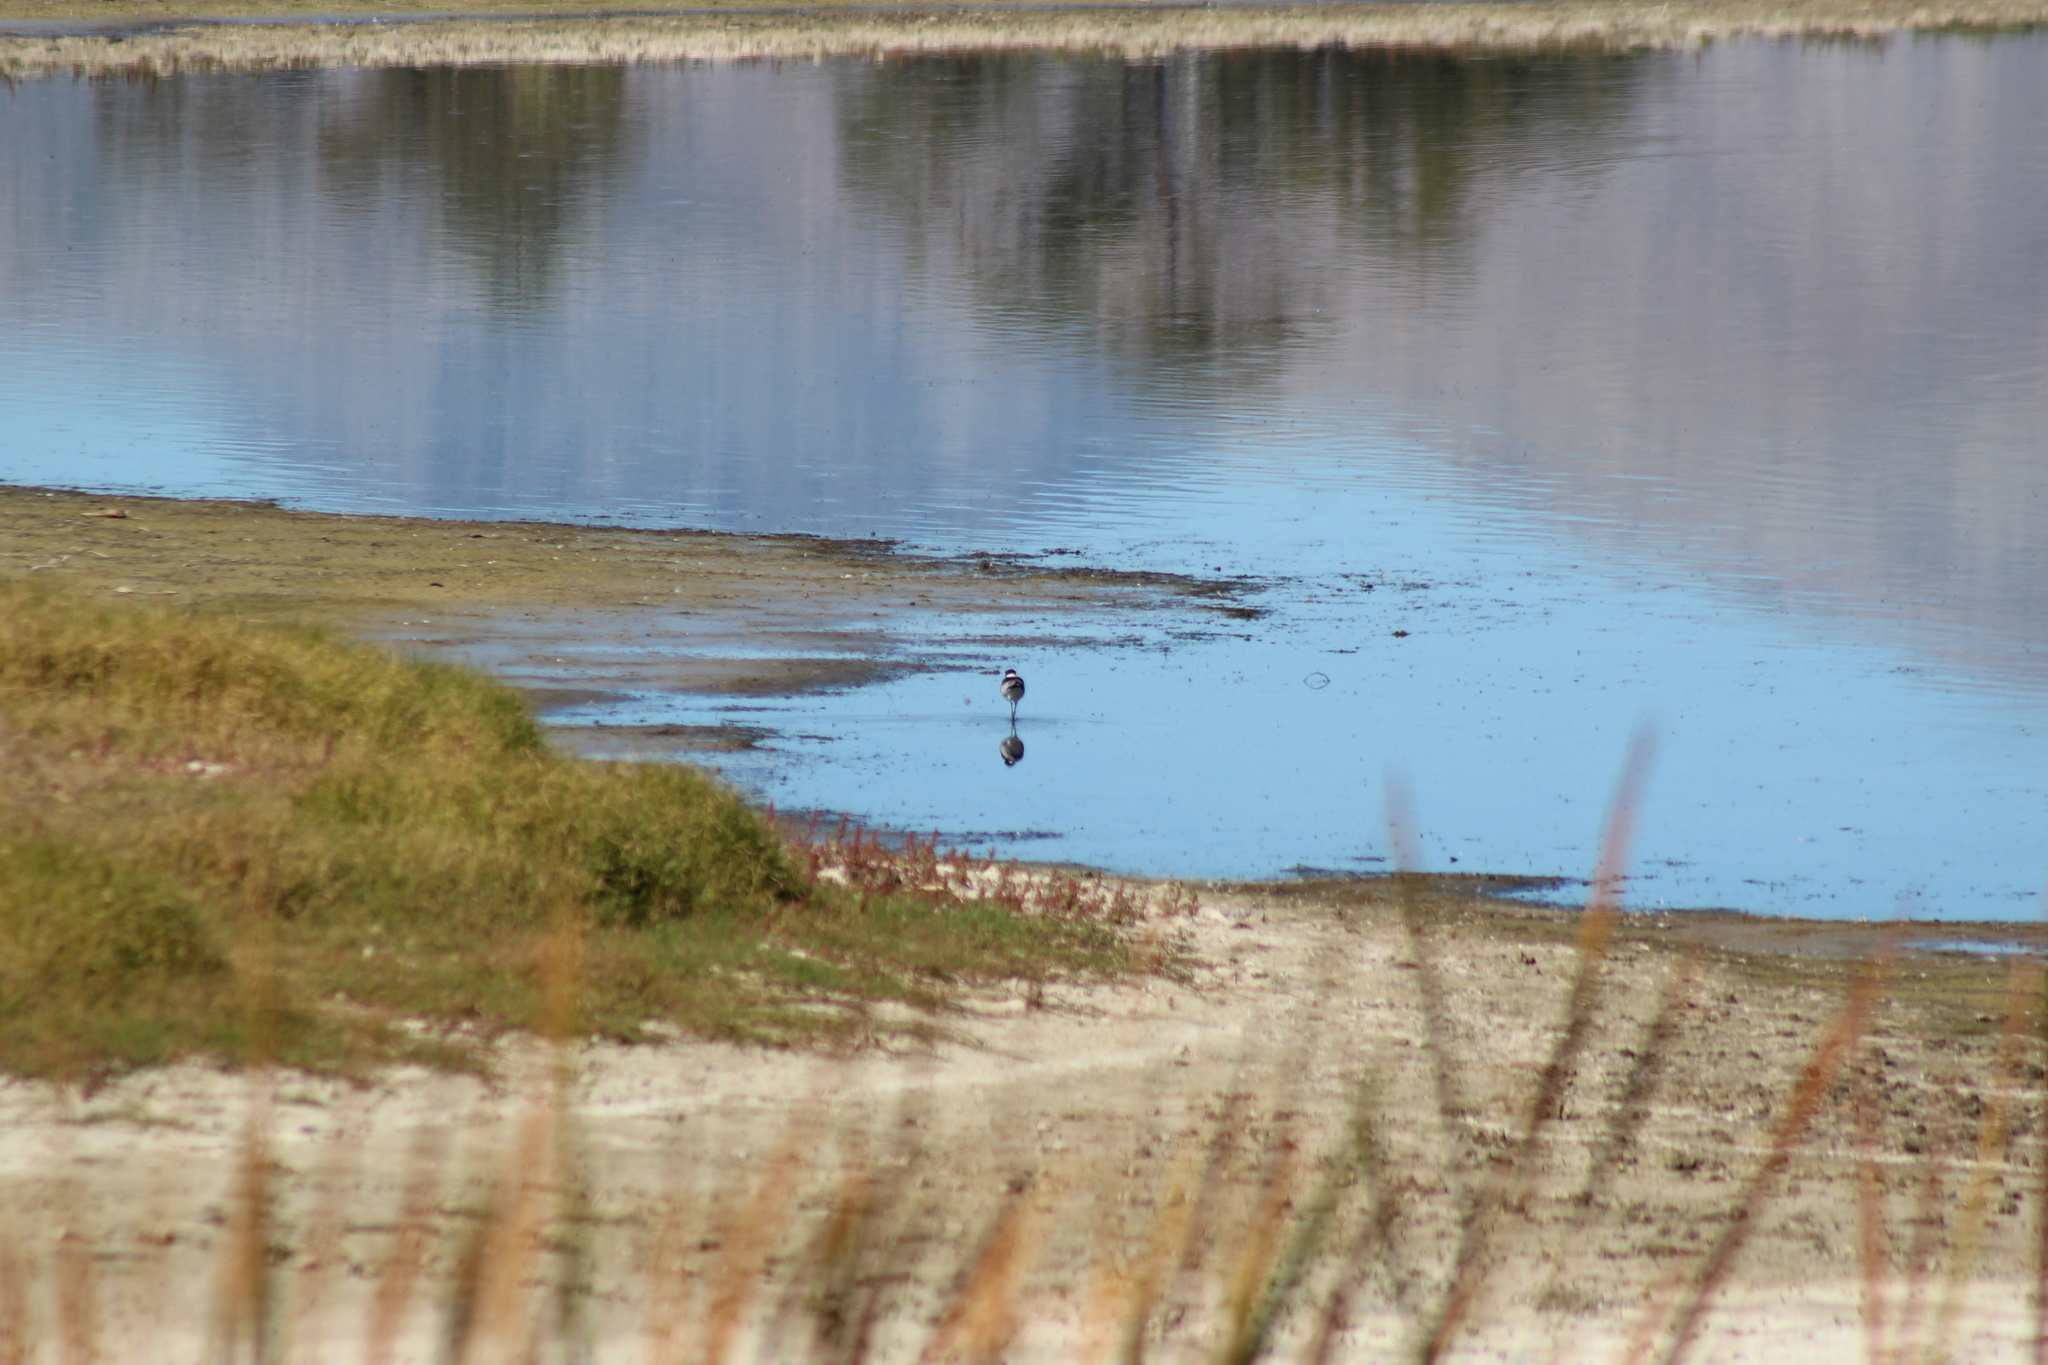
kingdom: Animalia
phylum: Chordata
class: Aves
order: Charadriiformes
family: Charadriidae
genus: Vanellus
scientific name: Vanellus armatus
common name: Blacksmith lapwing
